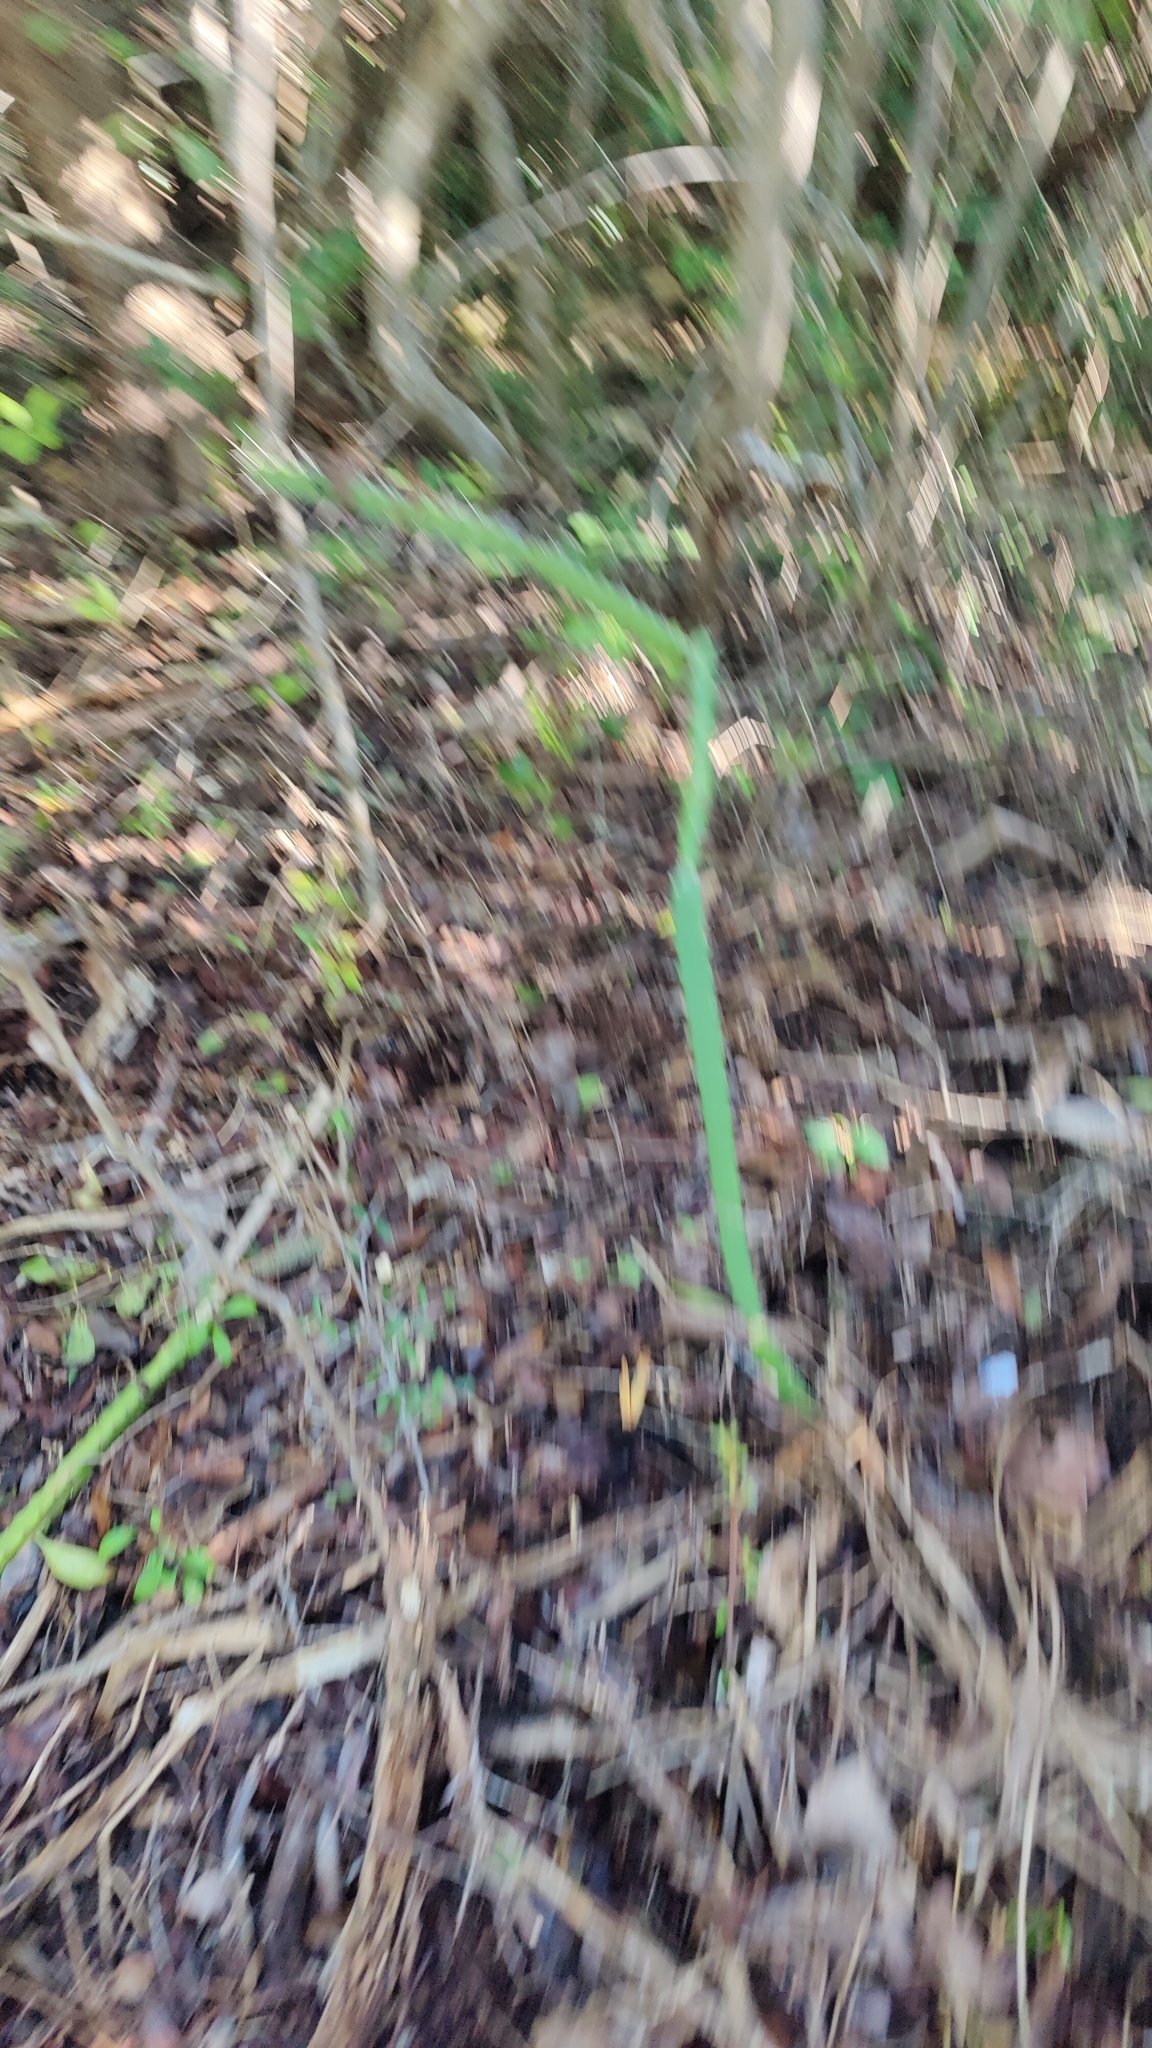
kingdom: Plantae
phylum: Tracheophyta
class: Magnoliopsida
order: Caryophyllales
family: Cactaceae
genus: Acanthocereus
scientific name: Acanthocereus tetragonus
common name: Triangle cactus
